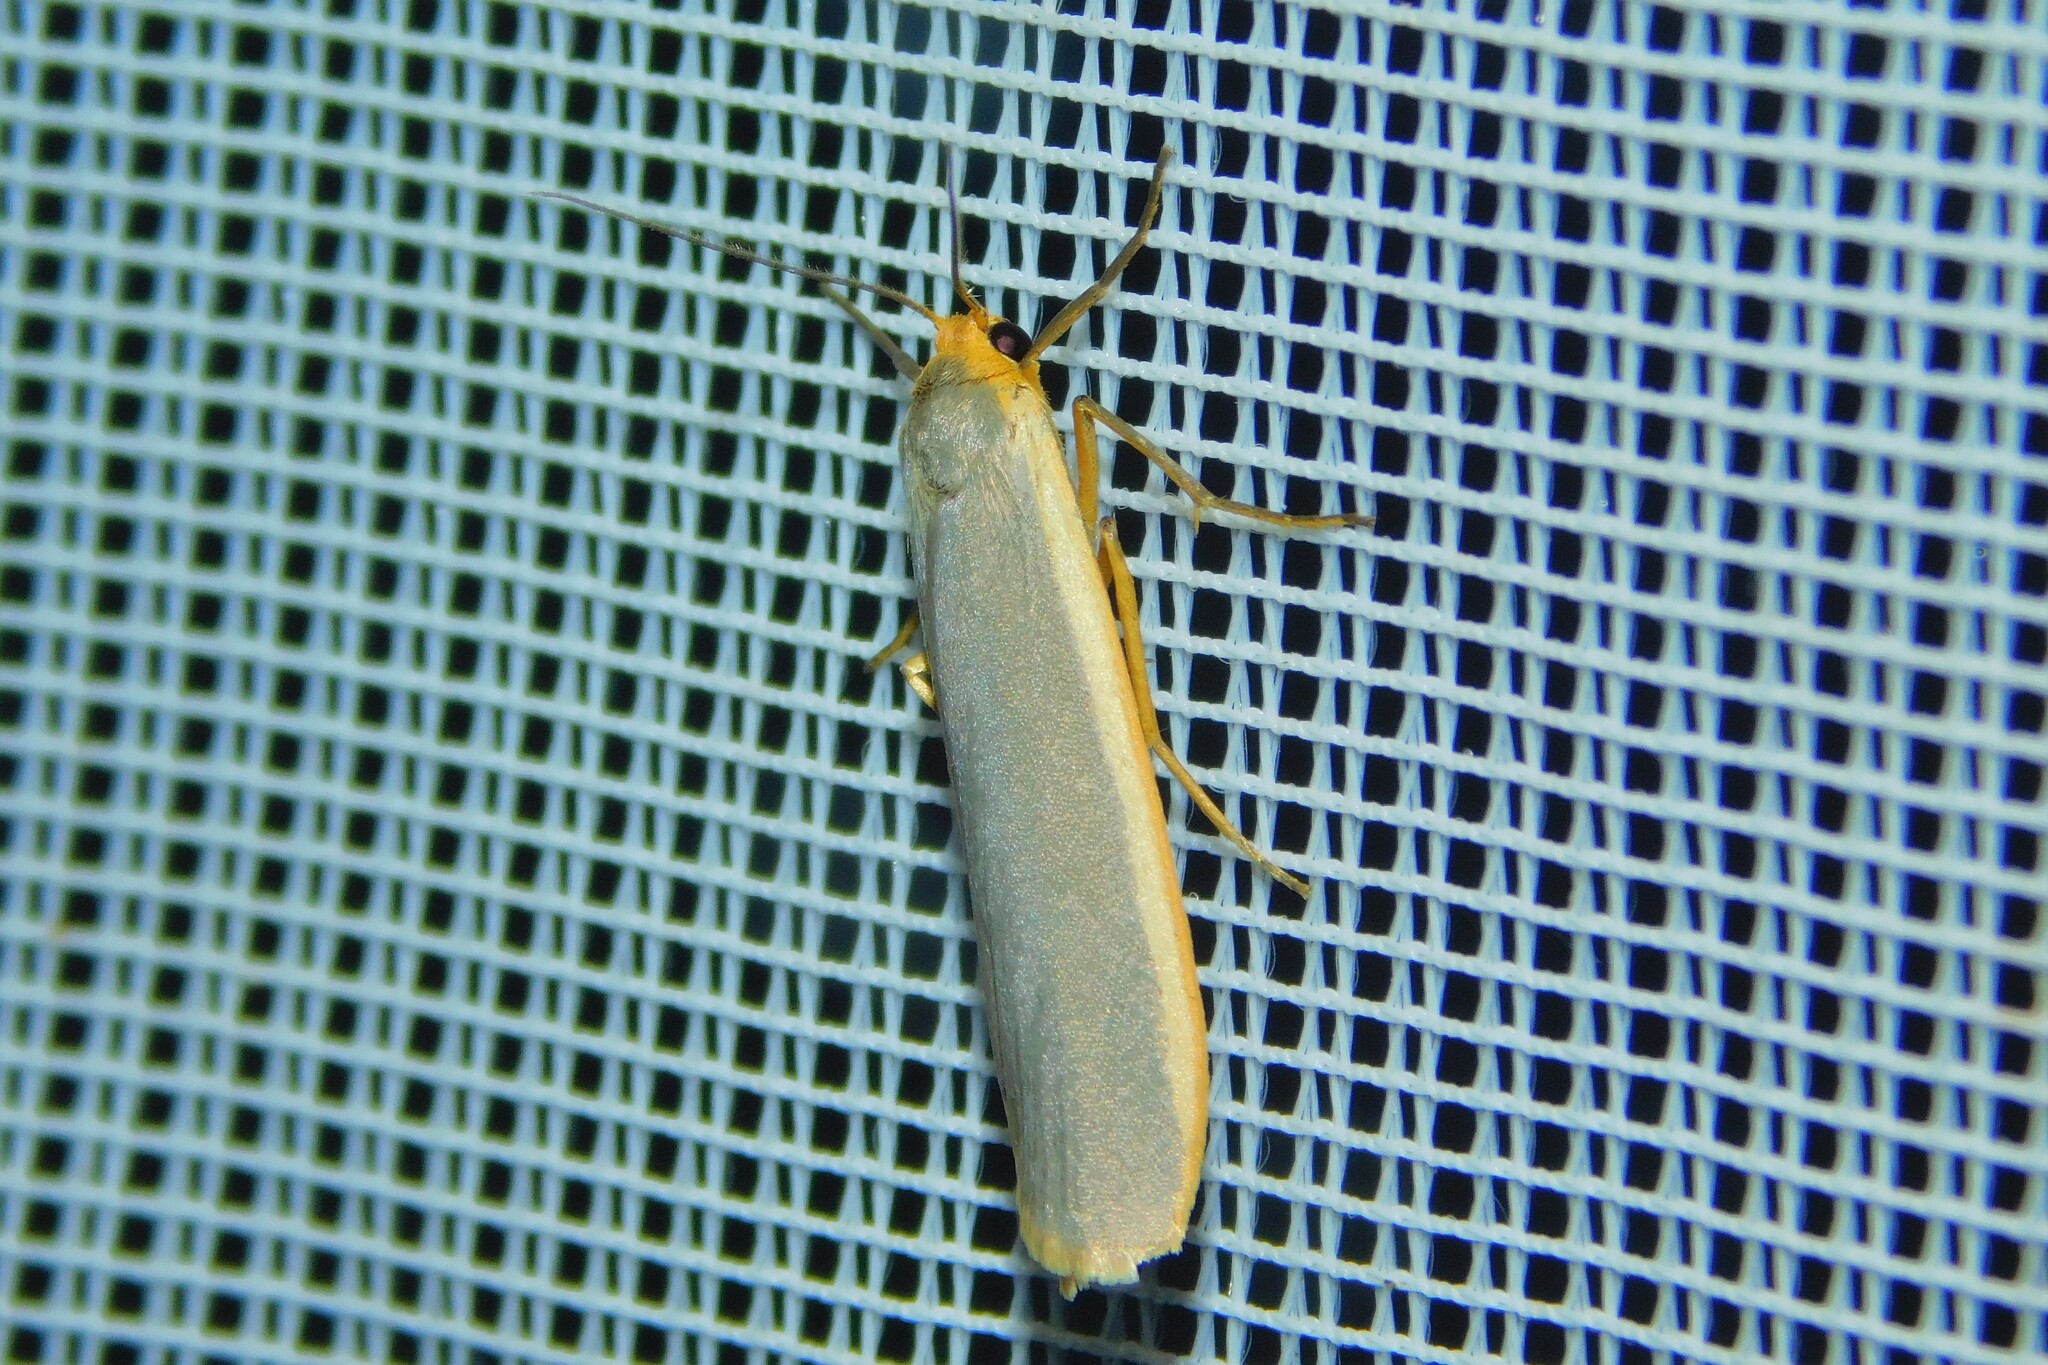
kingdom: Animalia
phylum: Arthropoda
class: Insecta
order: Lepidoptera
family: Erebidae
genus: Nyea
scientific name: Nyea lurideola
